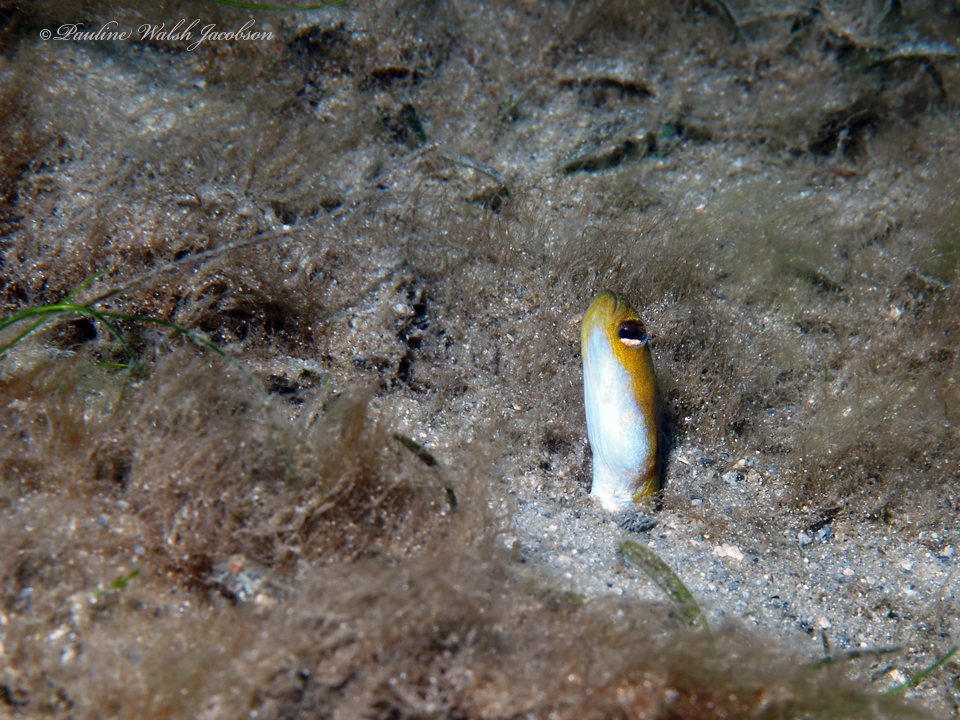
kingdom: Animalia
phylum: Chordata
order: Anguilliformes
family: Congridae
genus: Heteroconger
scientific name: Heteroconger luteolus
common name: Yellow garden eel
